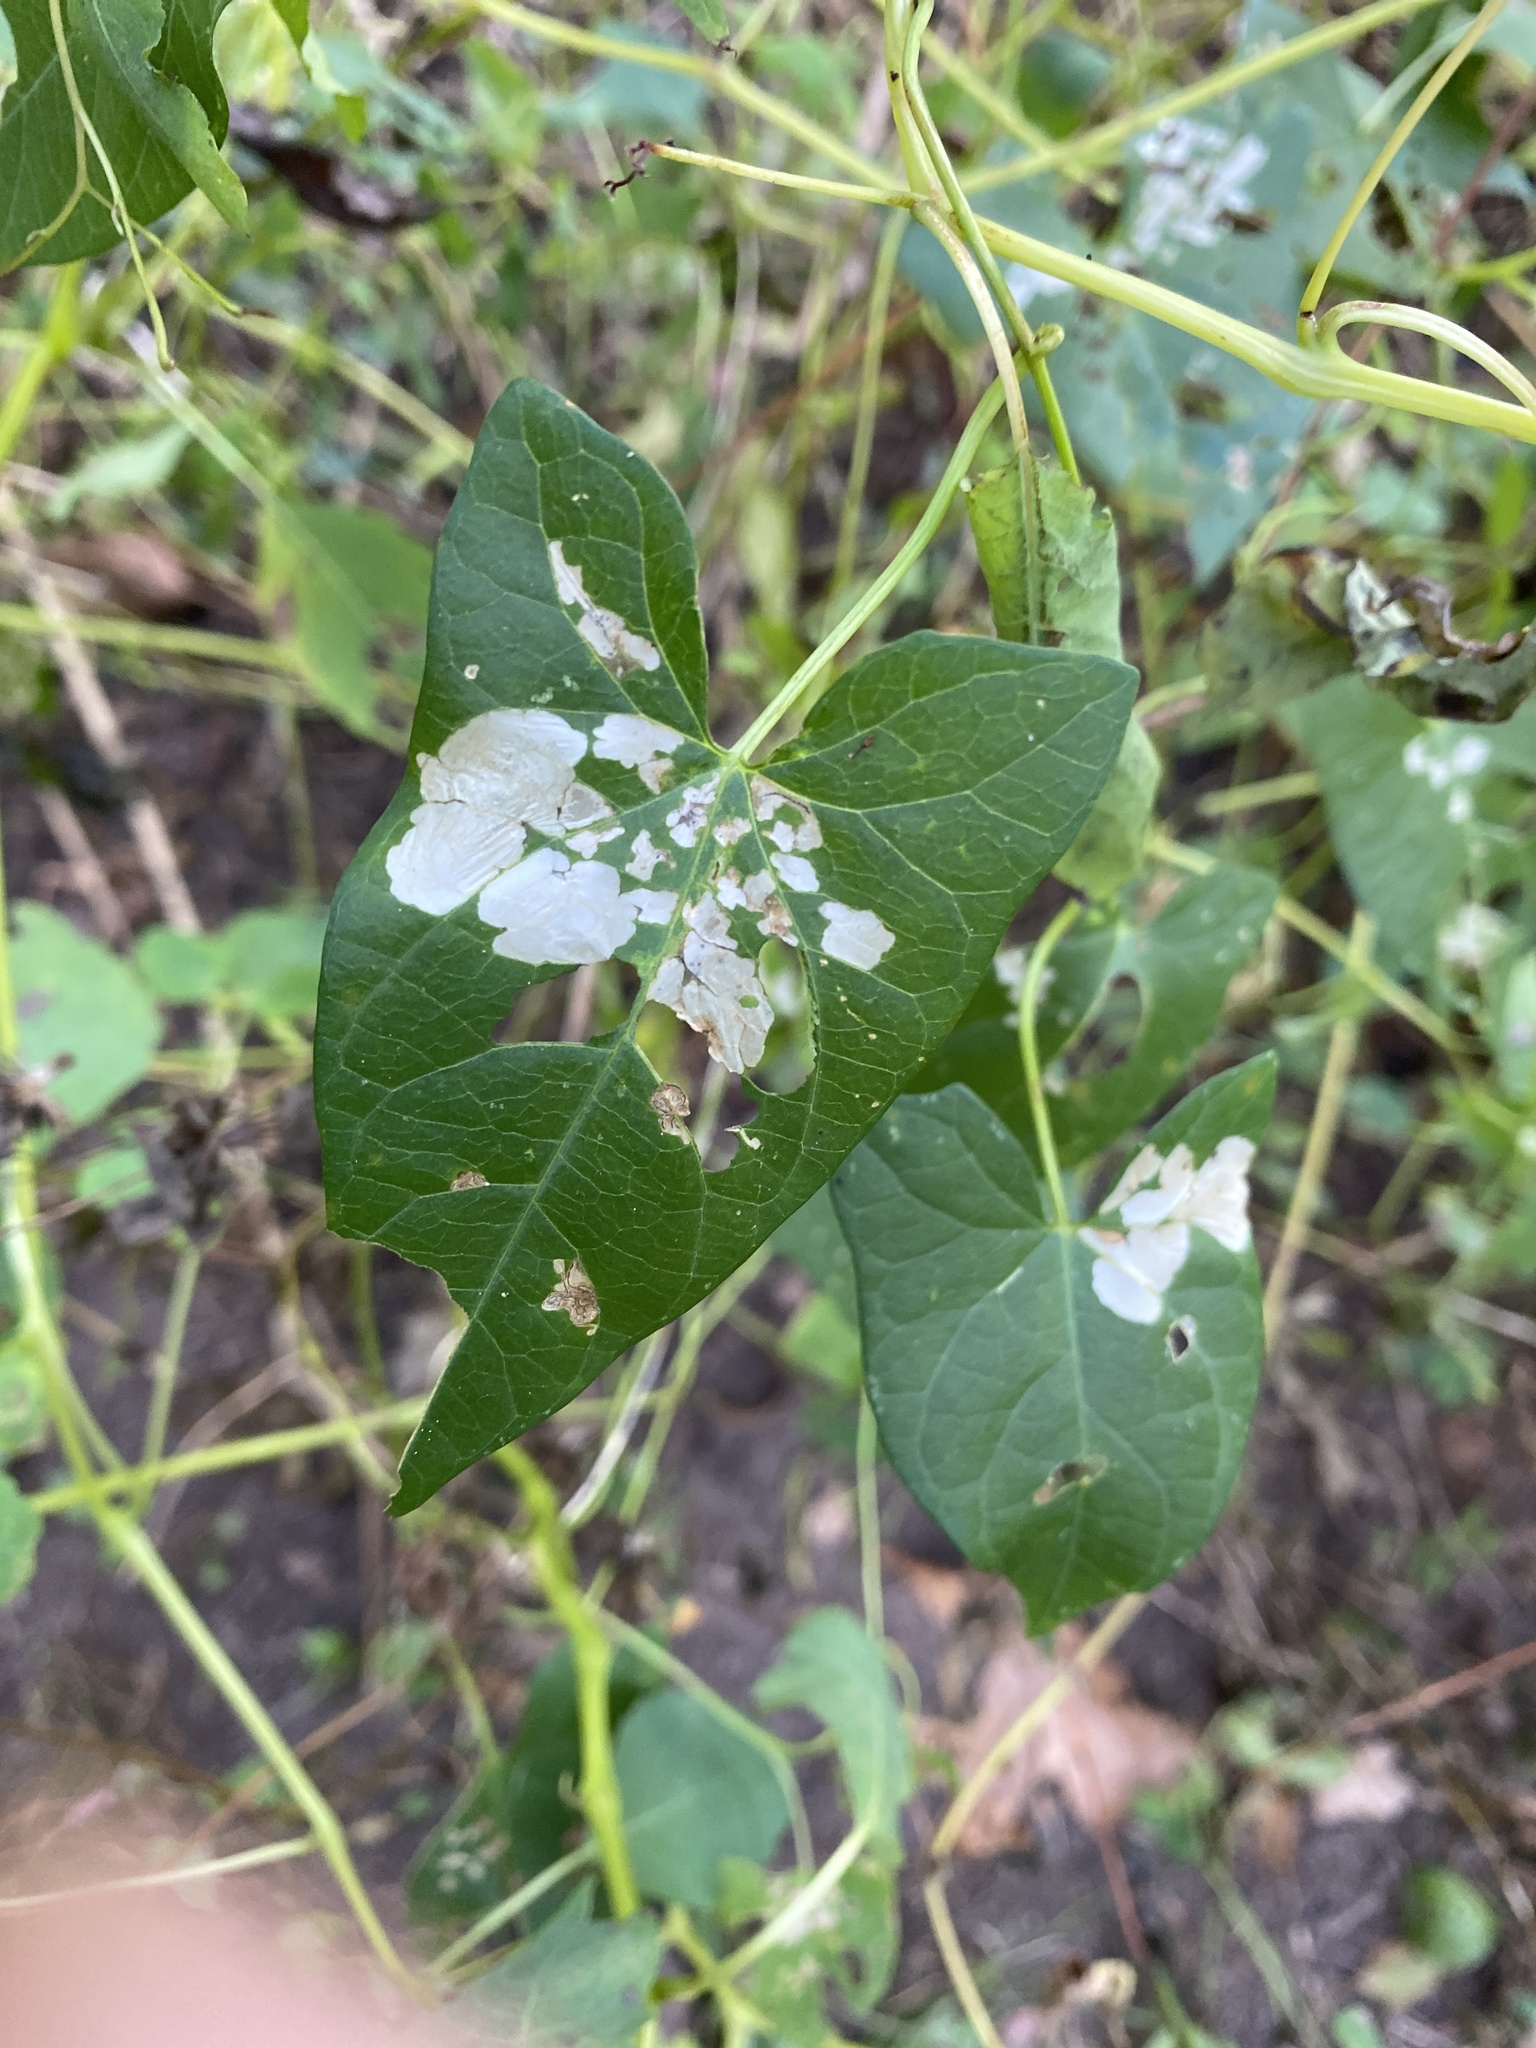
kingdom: Animalia
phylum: Arthropoda
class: Insecta
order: Lepidoptera
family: Bedelliidae
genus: Bedellia
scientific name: Bedellia somnulentella
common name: Morning-glory leafminer moth
